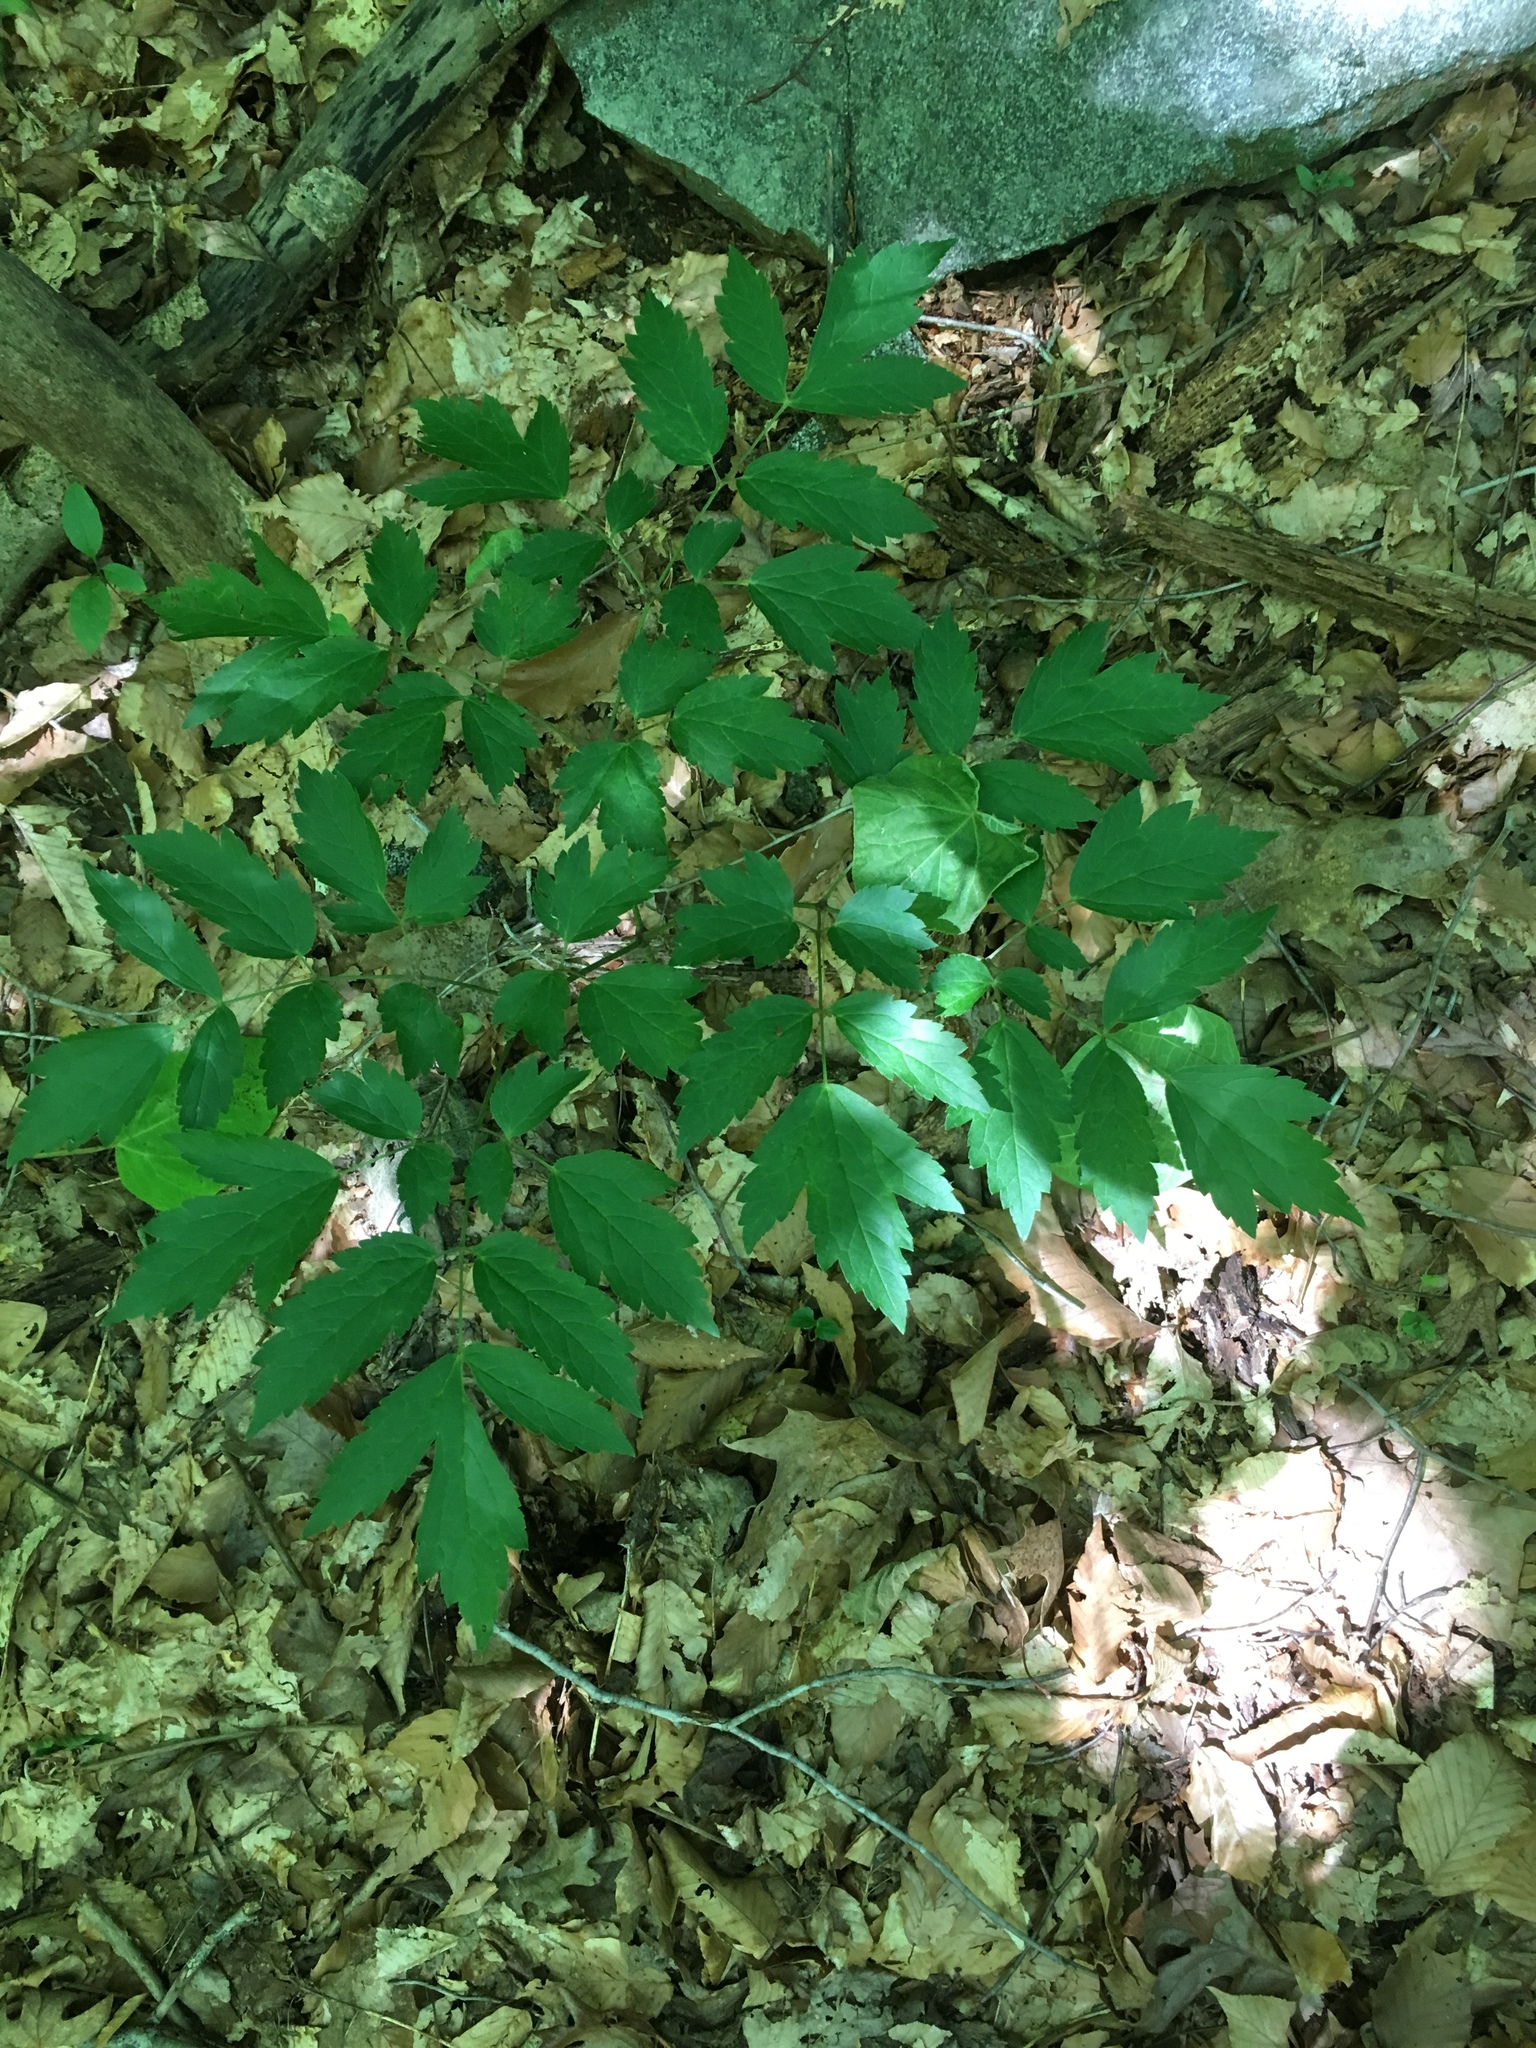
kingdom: Plantae
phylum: Tracheophyta
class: Magnoliopsida
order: Ranunculales
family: Ranunculaceae
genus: Actaea
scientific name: Actaea racemosa
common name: Black cohosh
